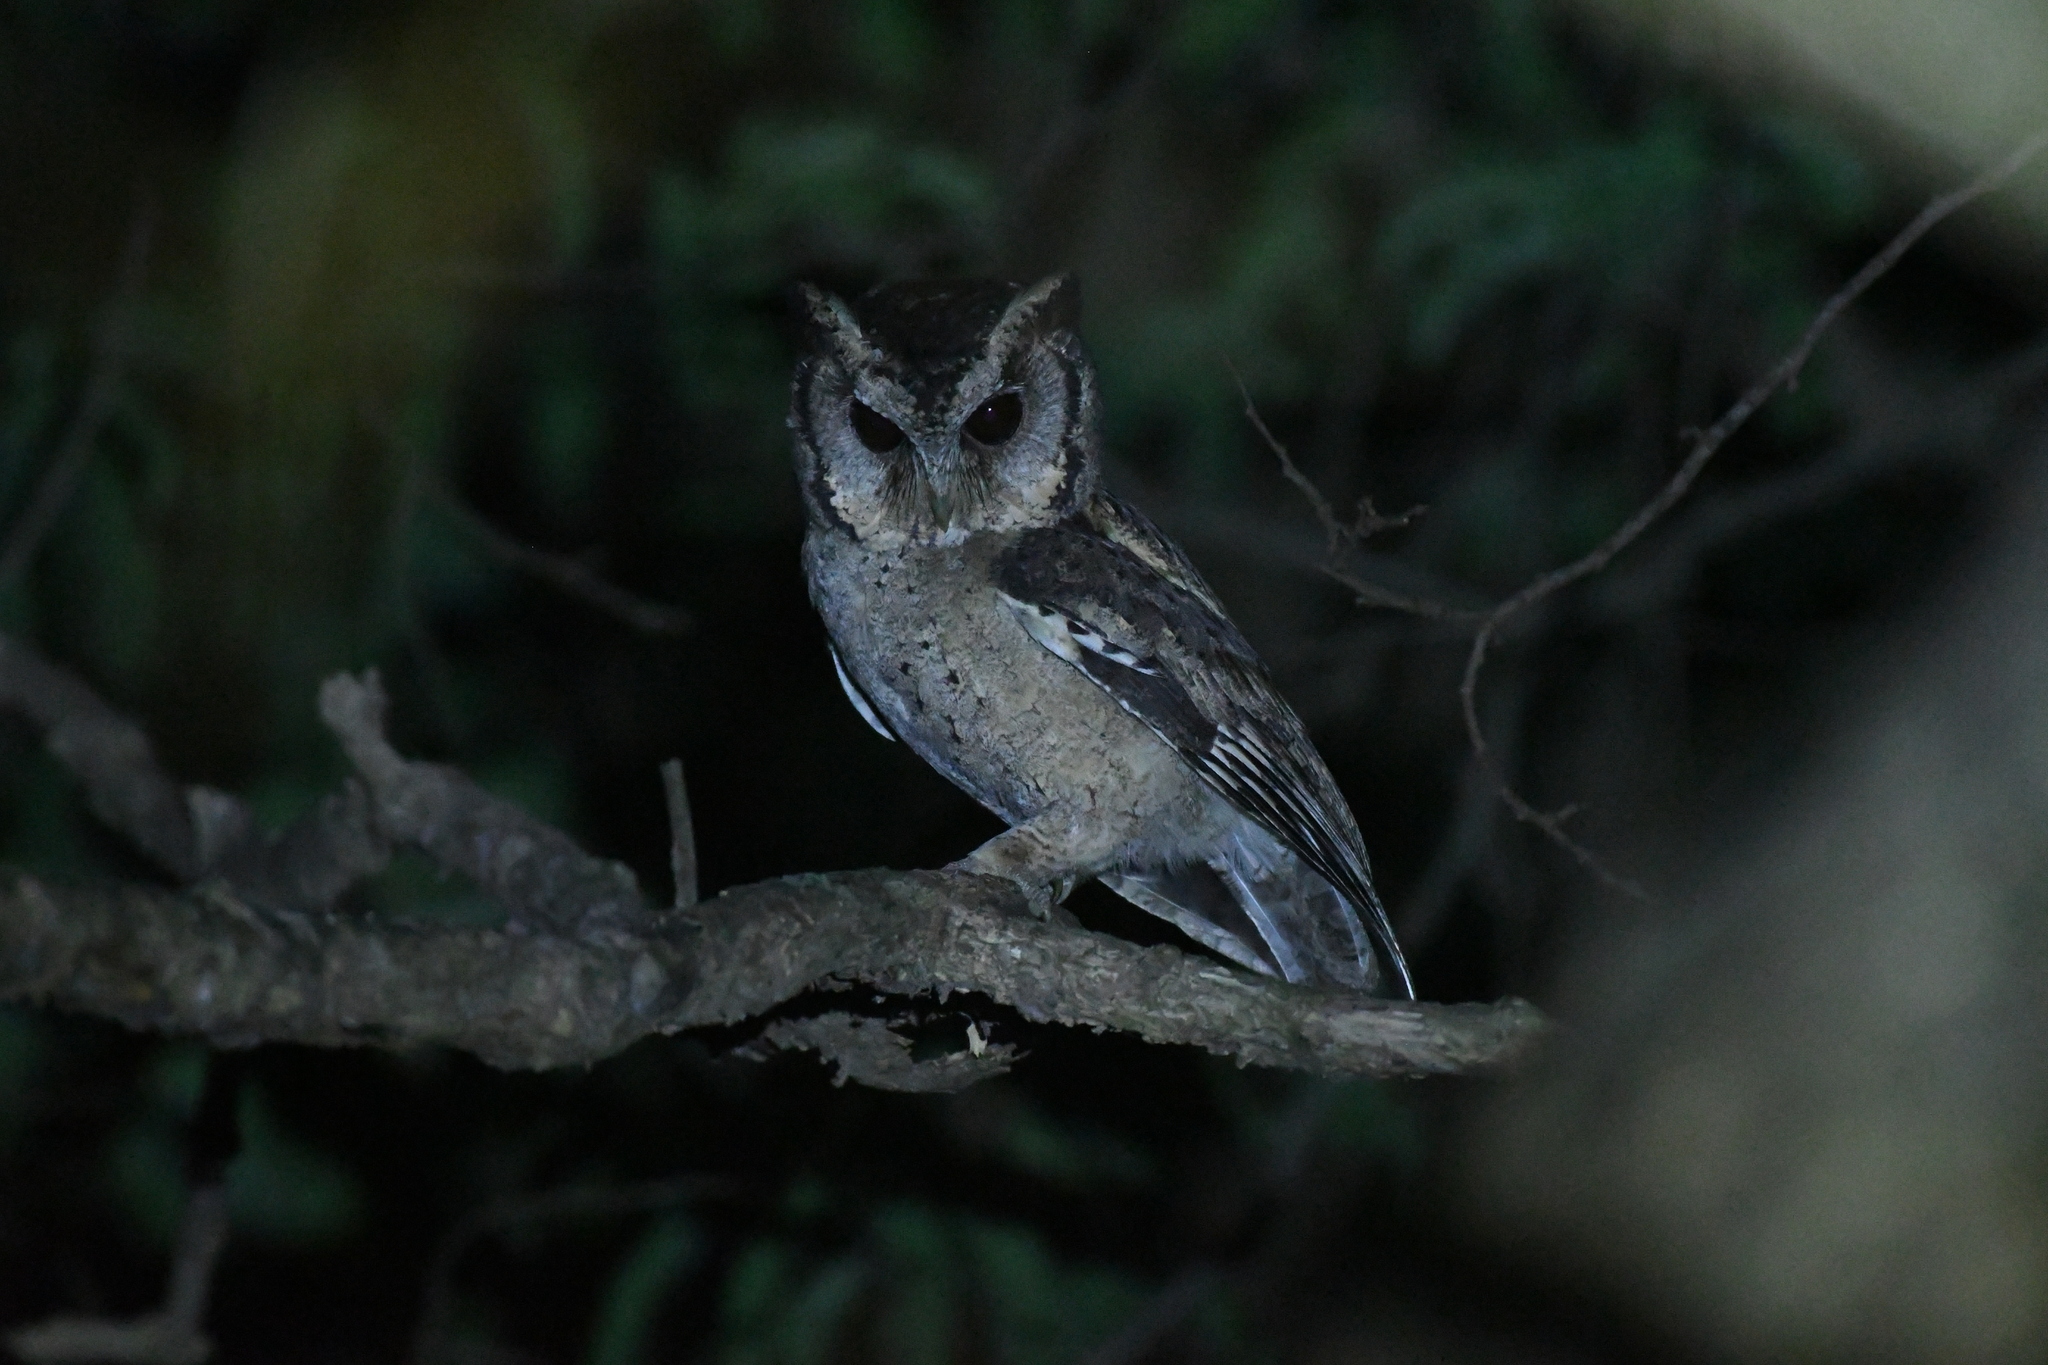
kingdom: Animalia
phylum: Chordata
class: Aves
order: Strigiformes
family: Strigidae
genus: Otus
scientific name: Otus lettia
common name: Collared scops owl
